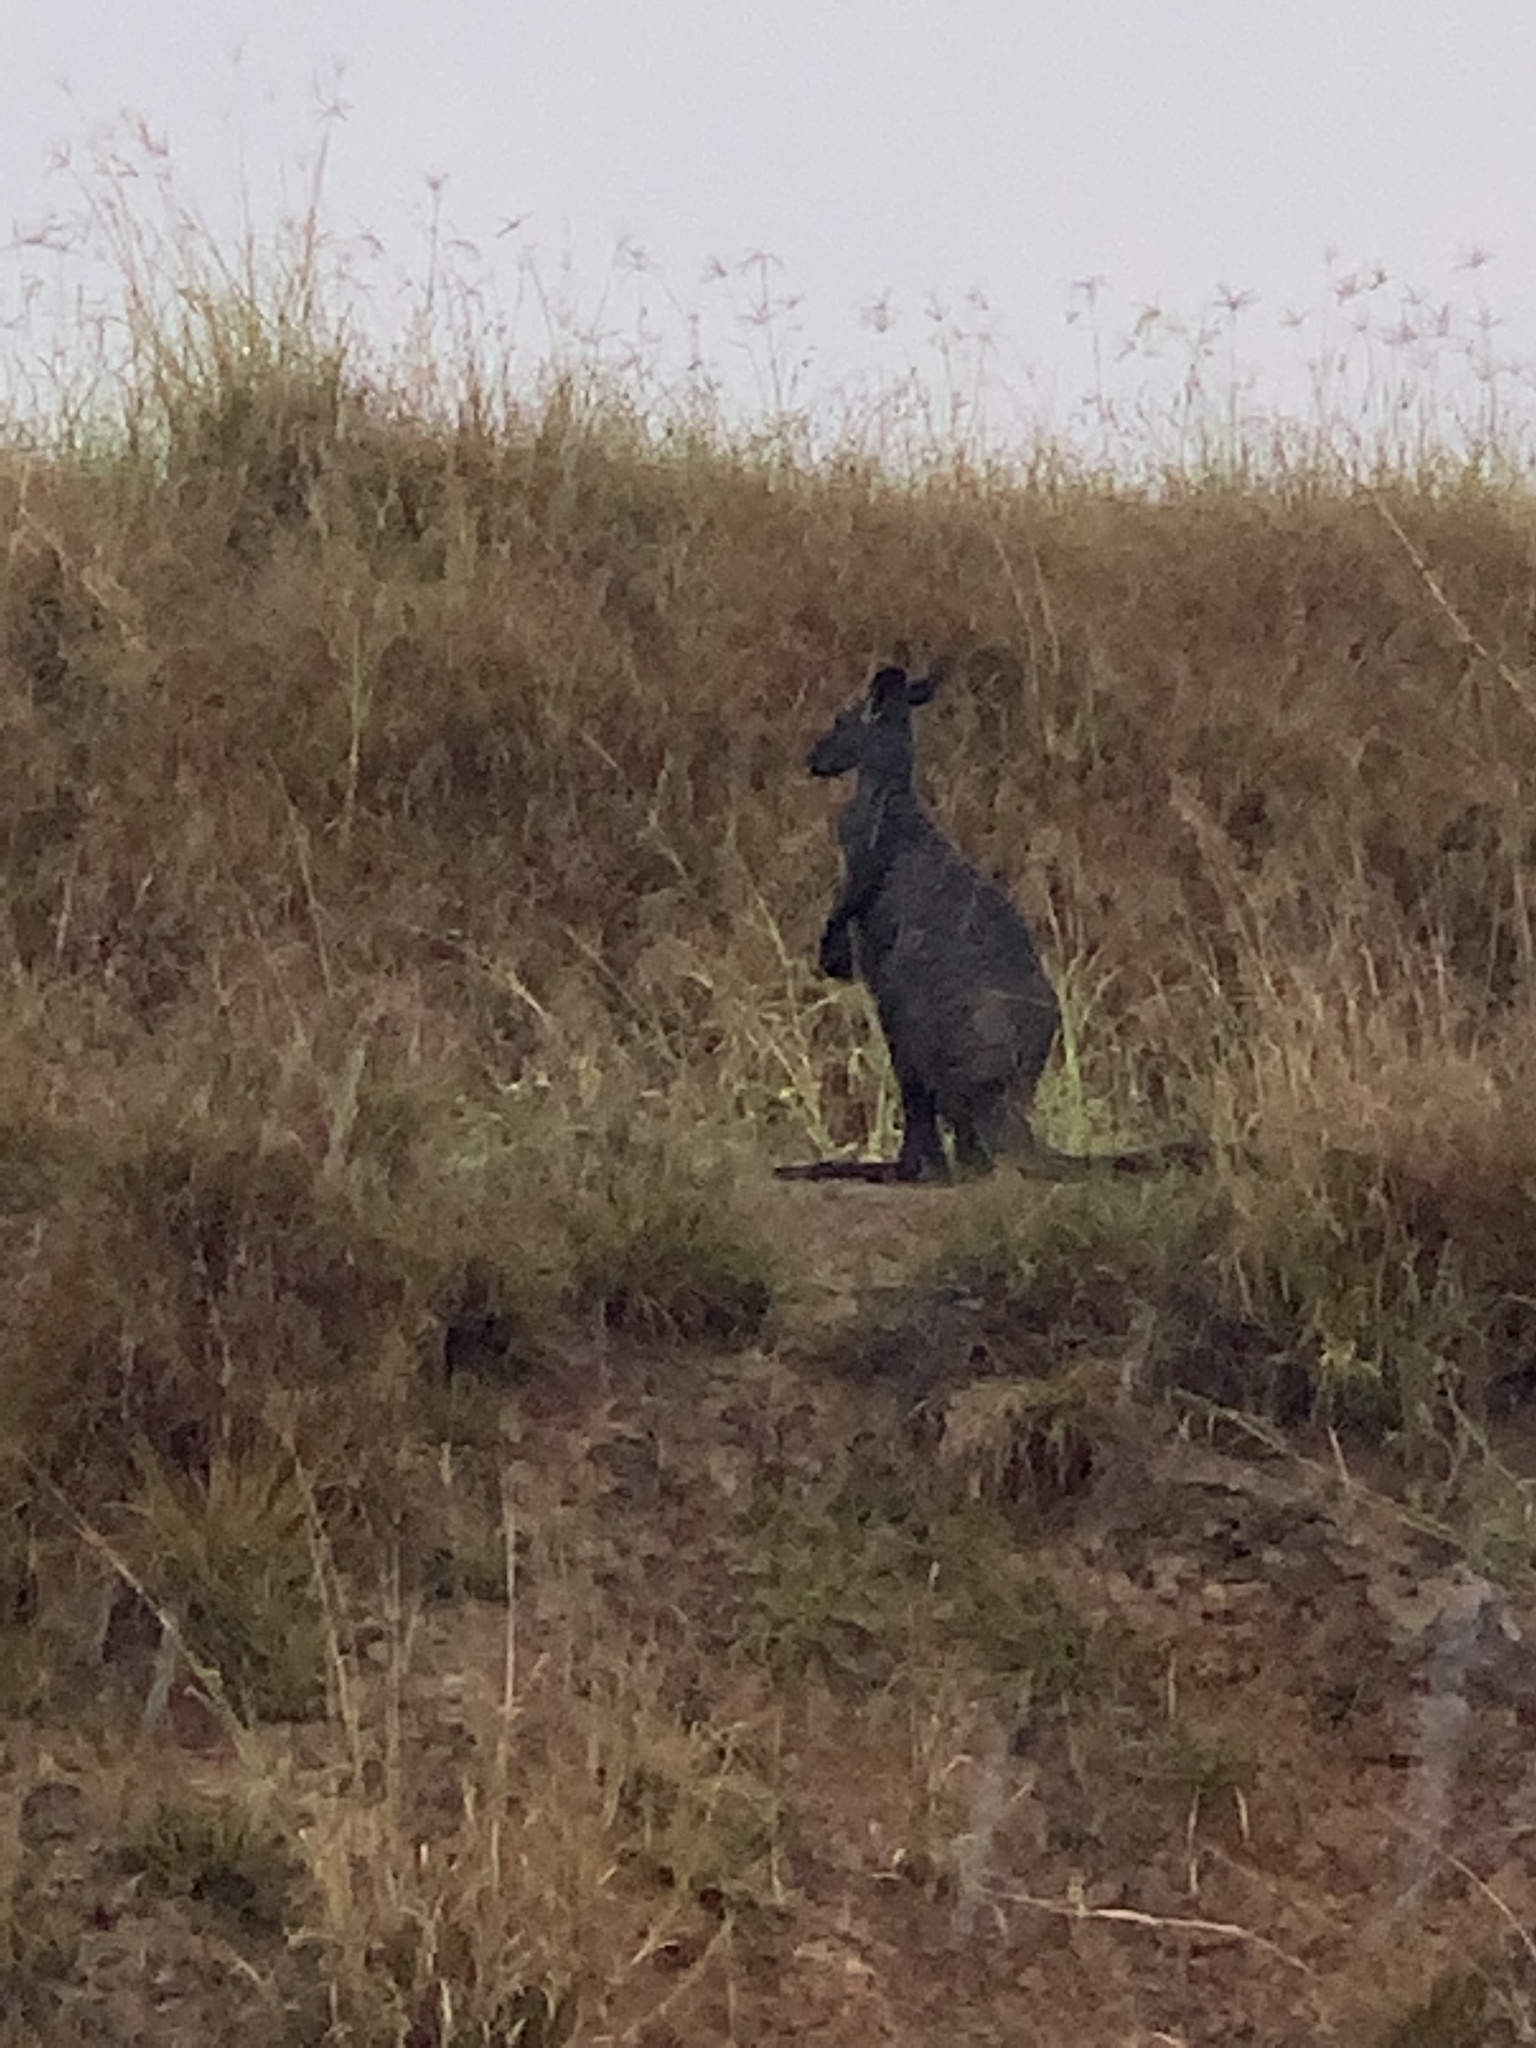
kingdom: Animalia
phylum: Chordata
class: Mammalia
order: Diprotodontia
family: Macropodidae
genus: Macropus
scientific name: Macropus robustus
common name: Eastern wallaroo
